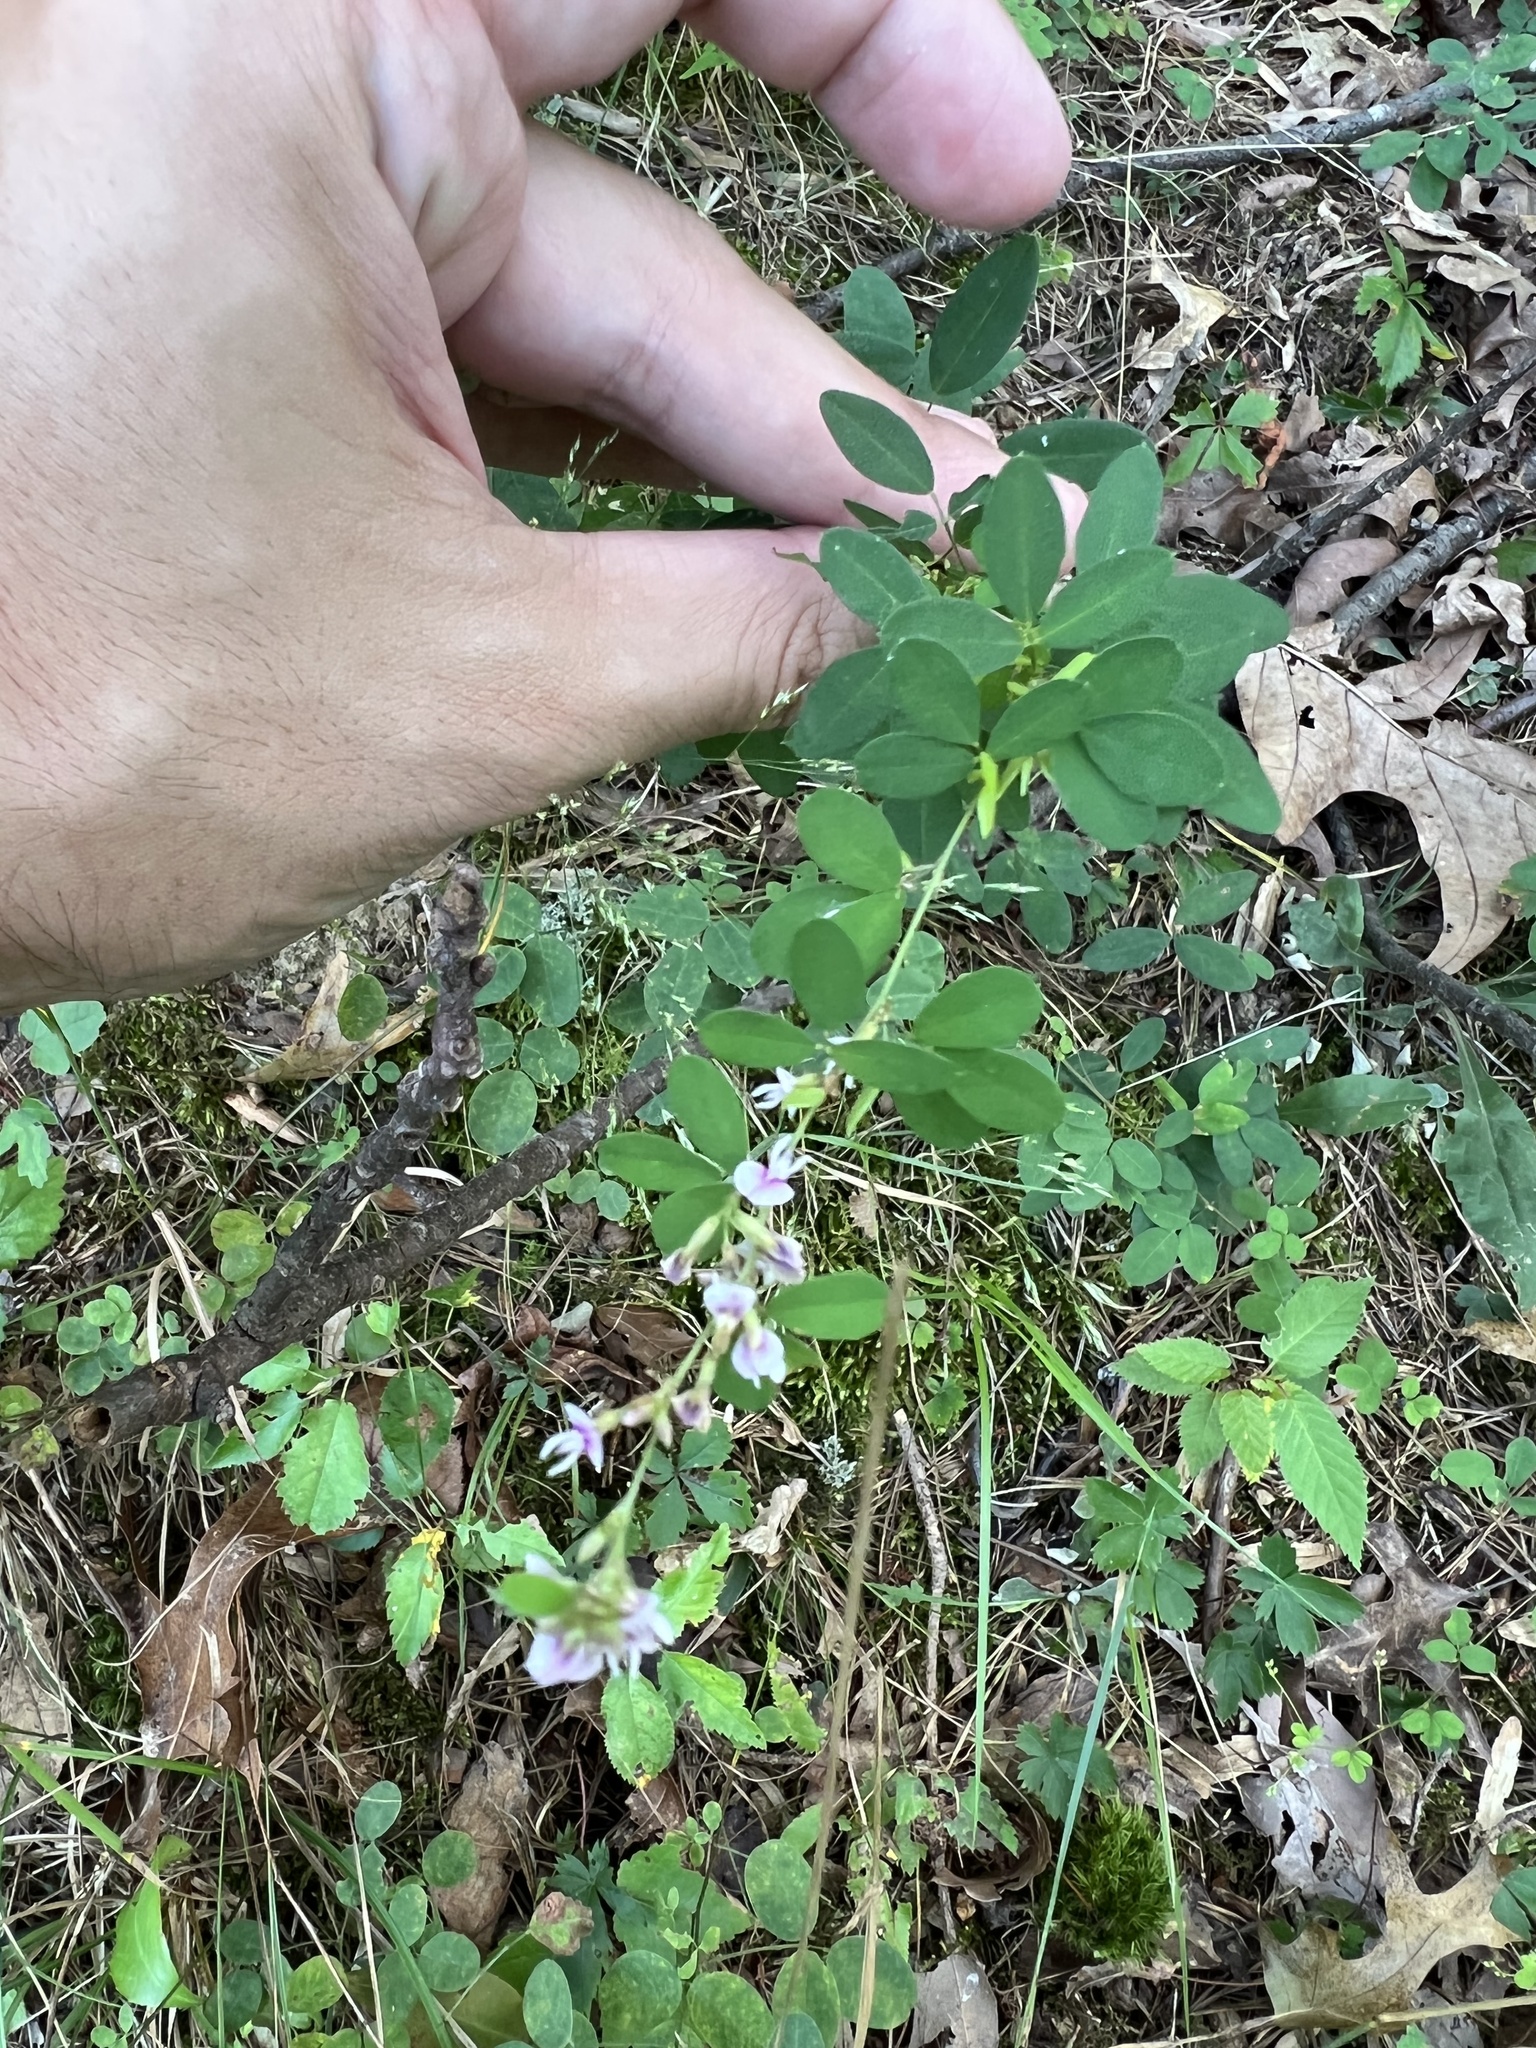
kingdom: Plantae
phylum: Tracheophyta
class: Magnoliopsida
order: Fabales
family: Fabaceae
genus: Lespedeza
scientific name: Lespedeza violacea
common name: Wand bush-clover
